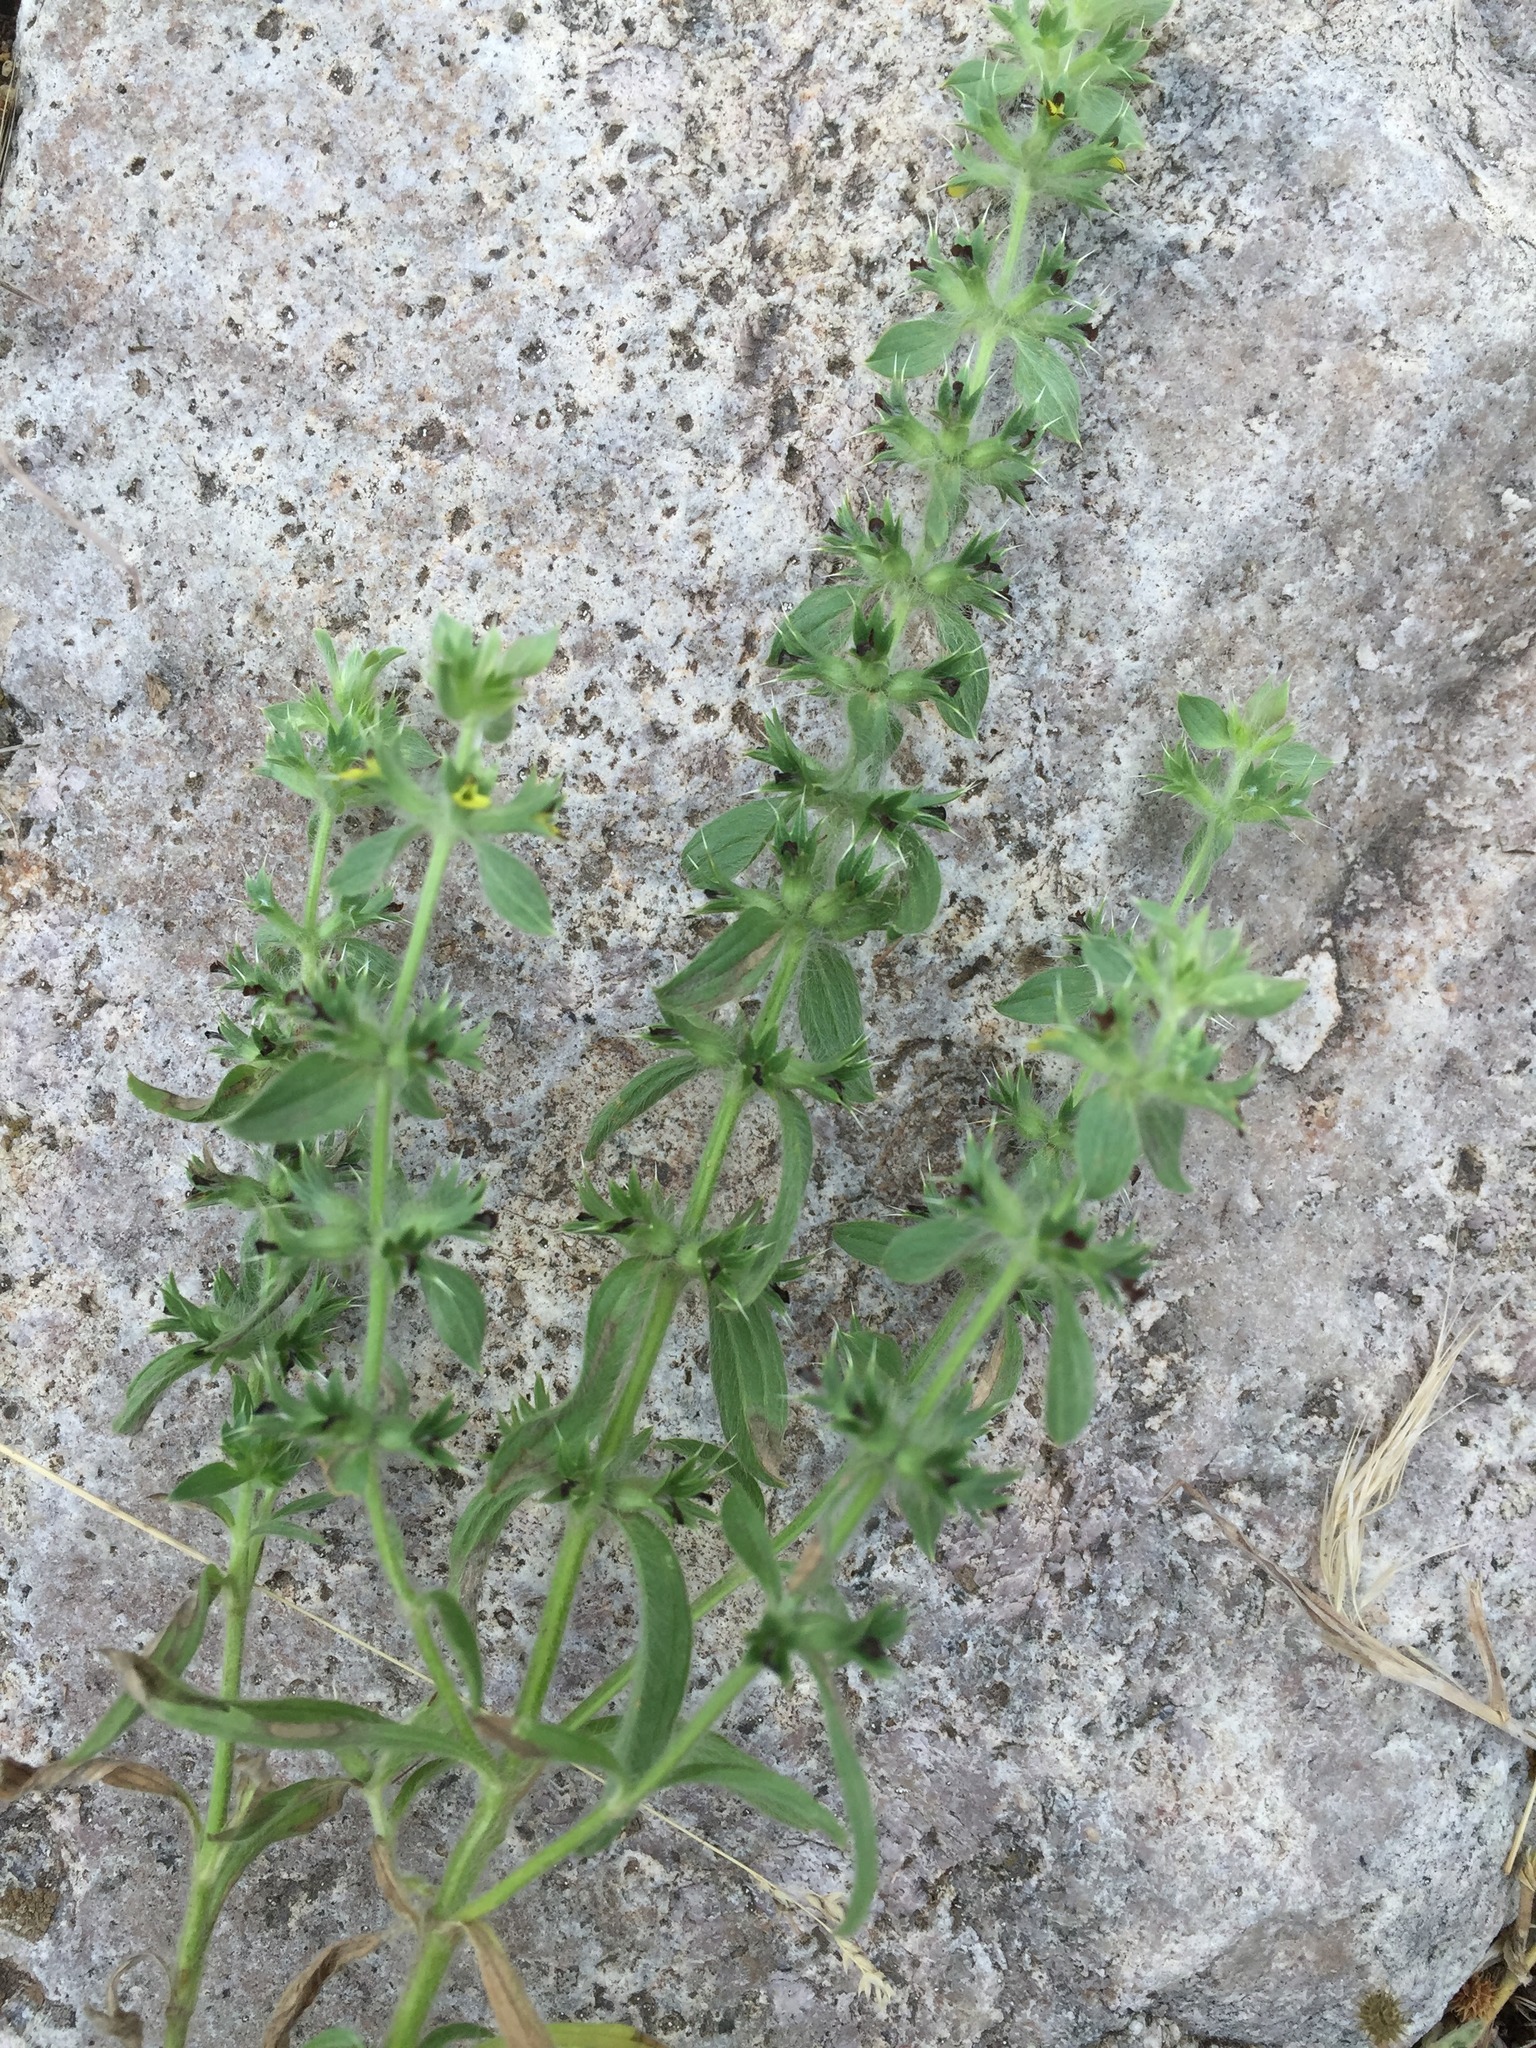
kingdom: Plantae
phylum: Tracheophyta
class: Magnoliopsida
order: Lamiales
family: Lamiaceae
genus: Sideritis
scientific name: Sideritis montana
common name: Mountain ironwort
